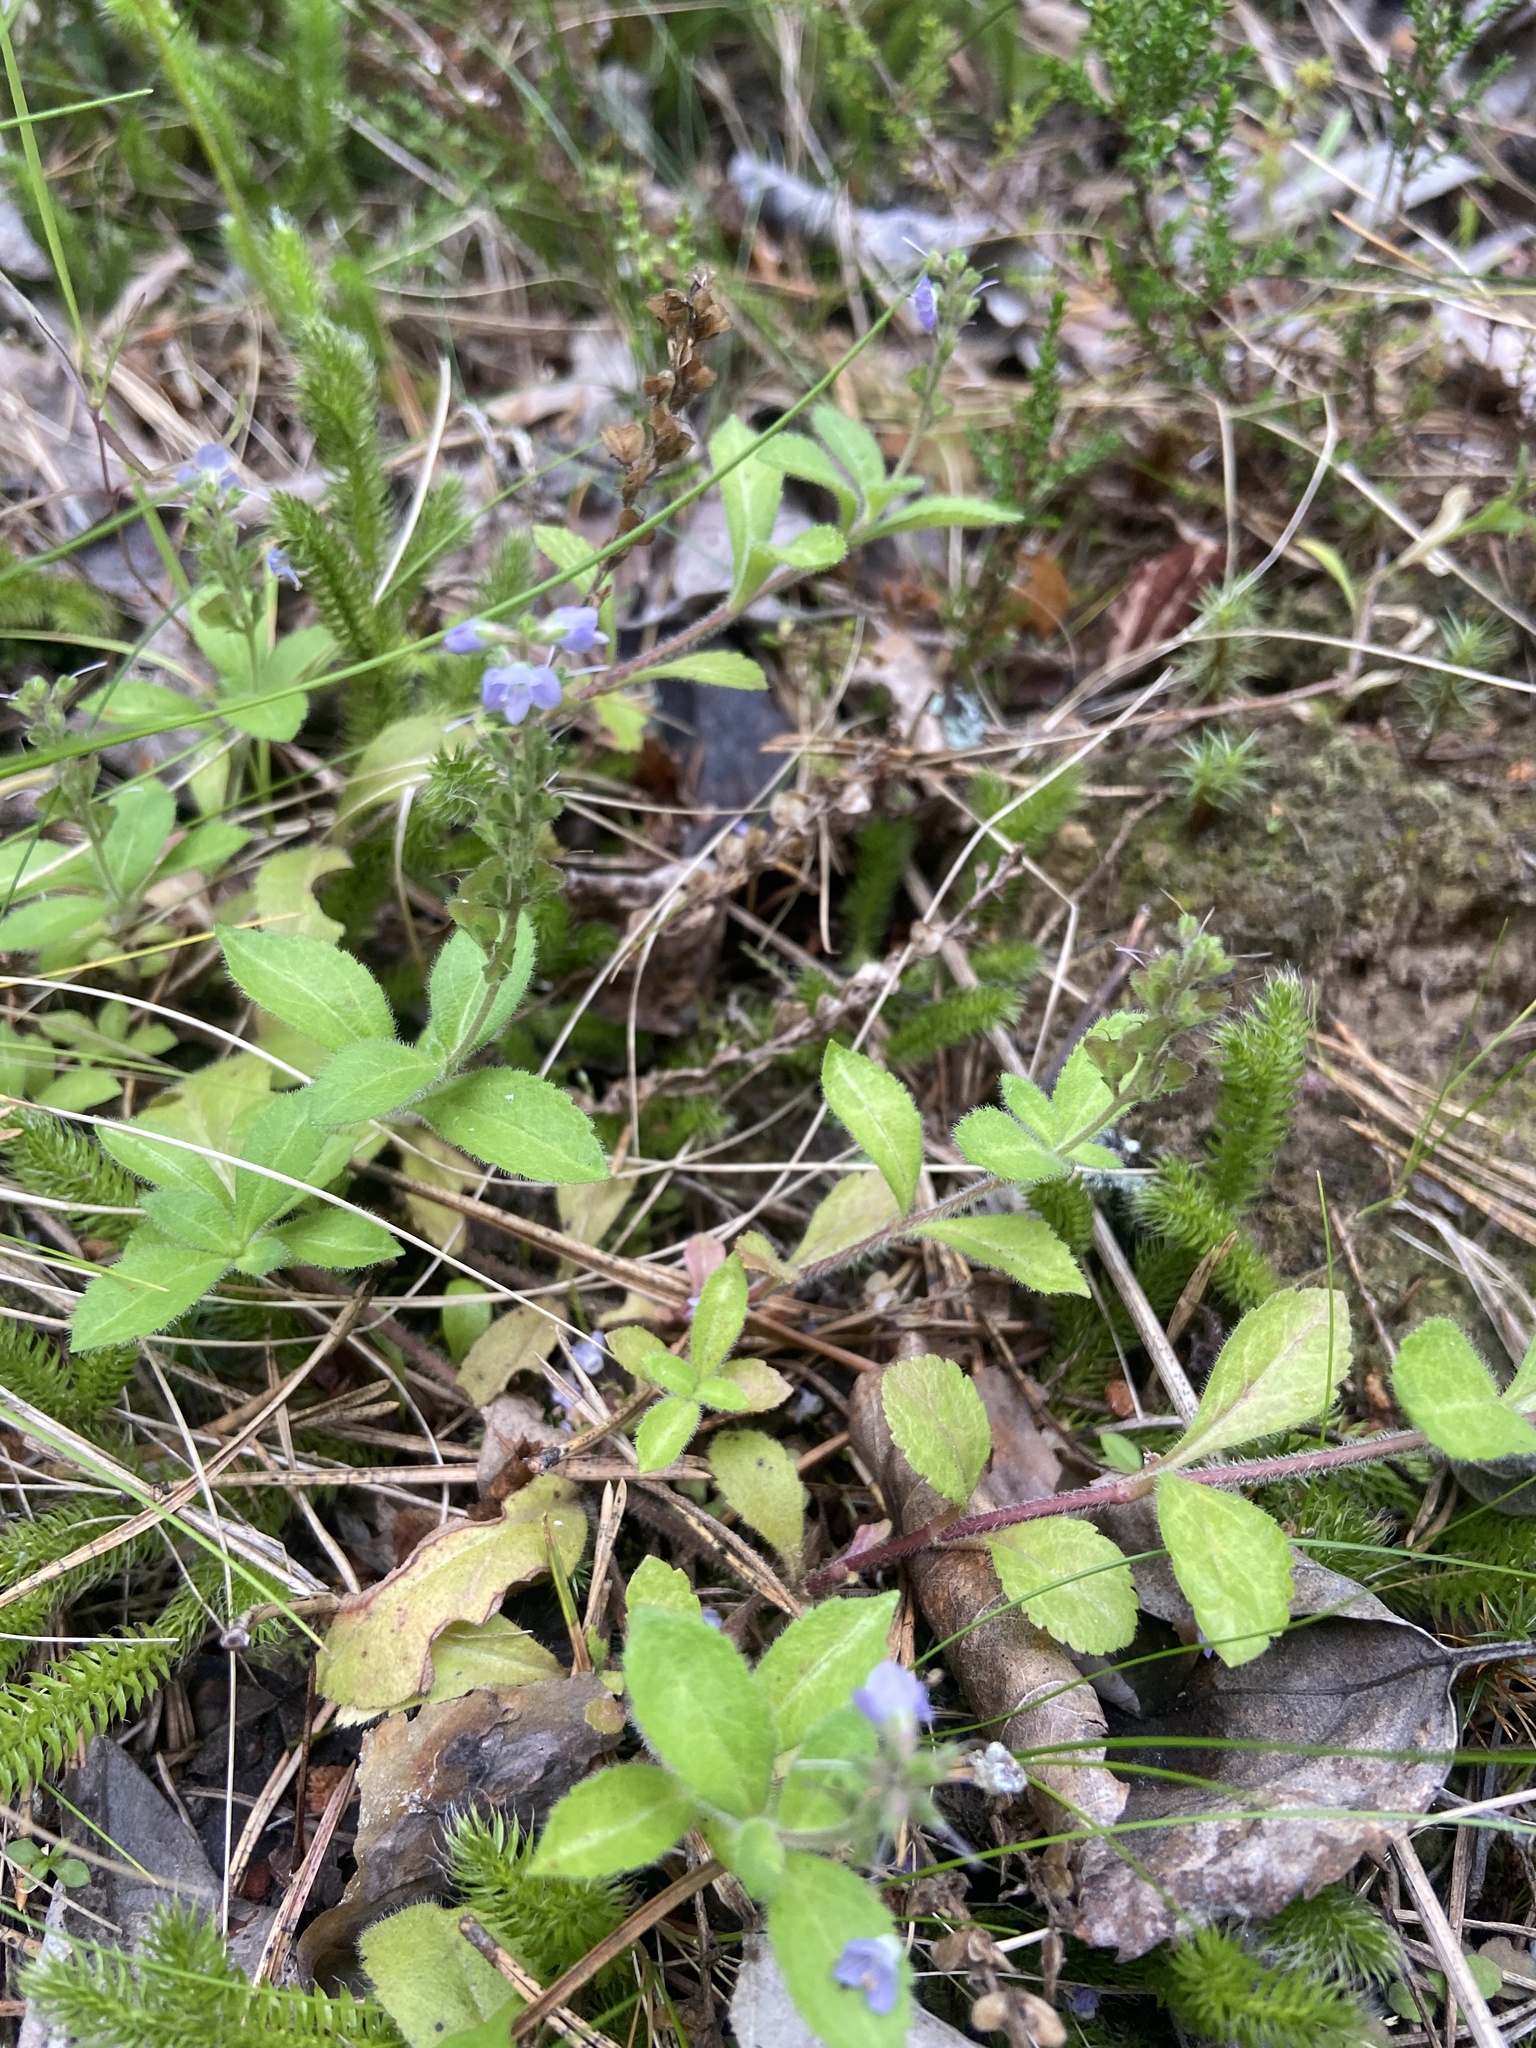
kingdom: Plantae
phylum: Tracheophyta
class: Magnoliopsida
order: Lamiales
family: Plantaginaceae
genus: Veronica
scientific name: Veronica officinalis
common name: Common speedwell
